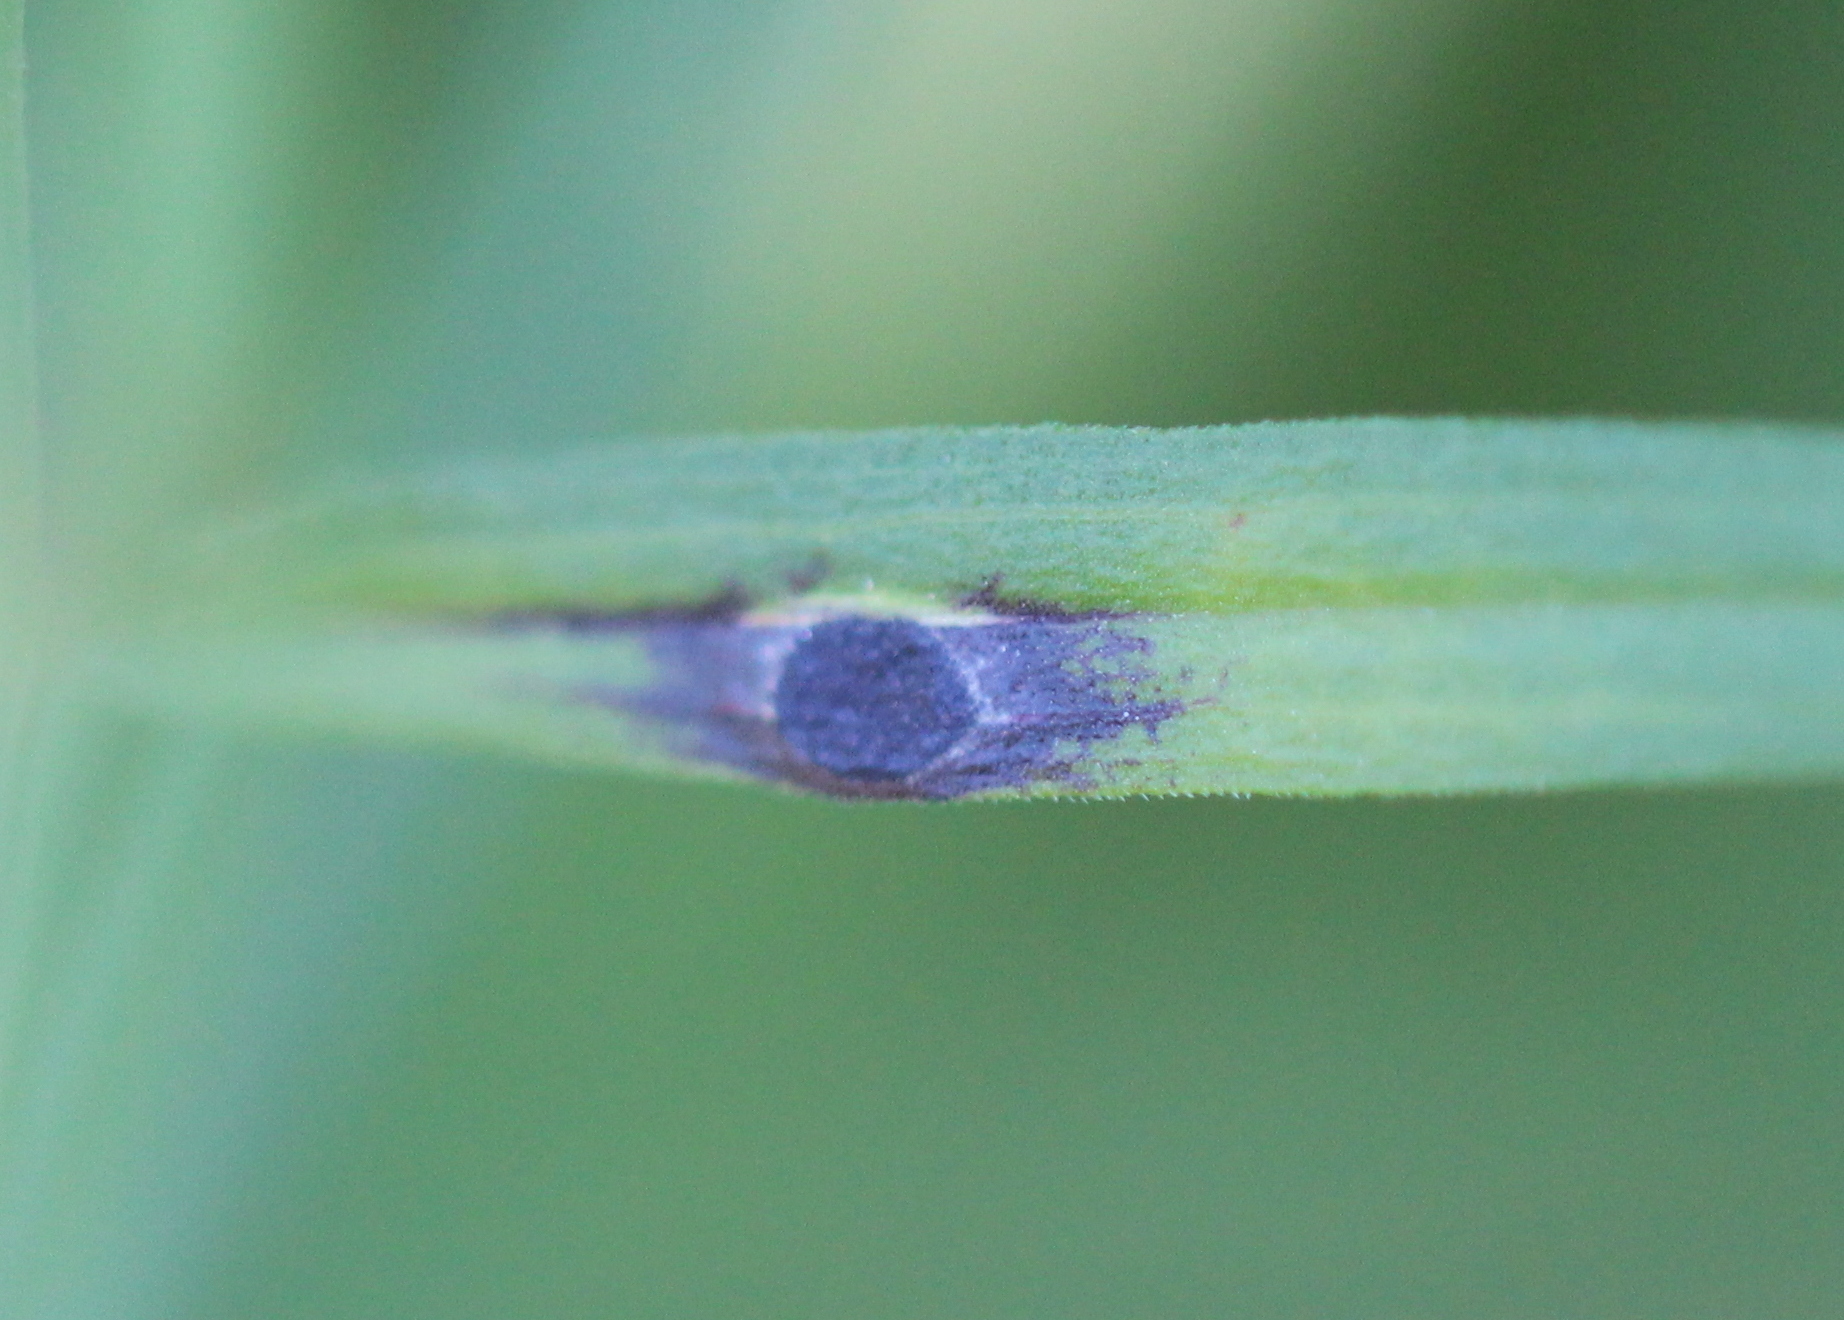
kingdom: Animalia
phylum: Arthropoda
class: Insecta
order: Diptera
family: Cecidomyiidae
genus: Asteromyia
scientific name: Asteromyia euthamiae
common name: Euthamia leaf gall midge
